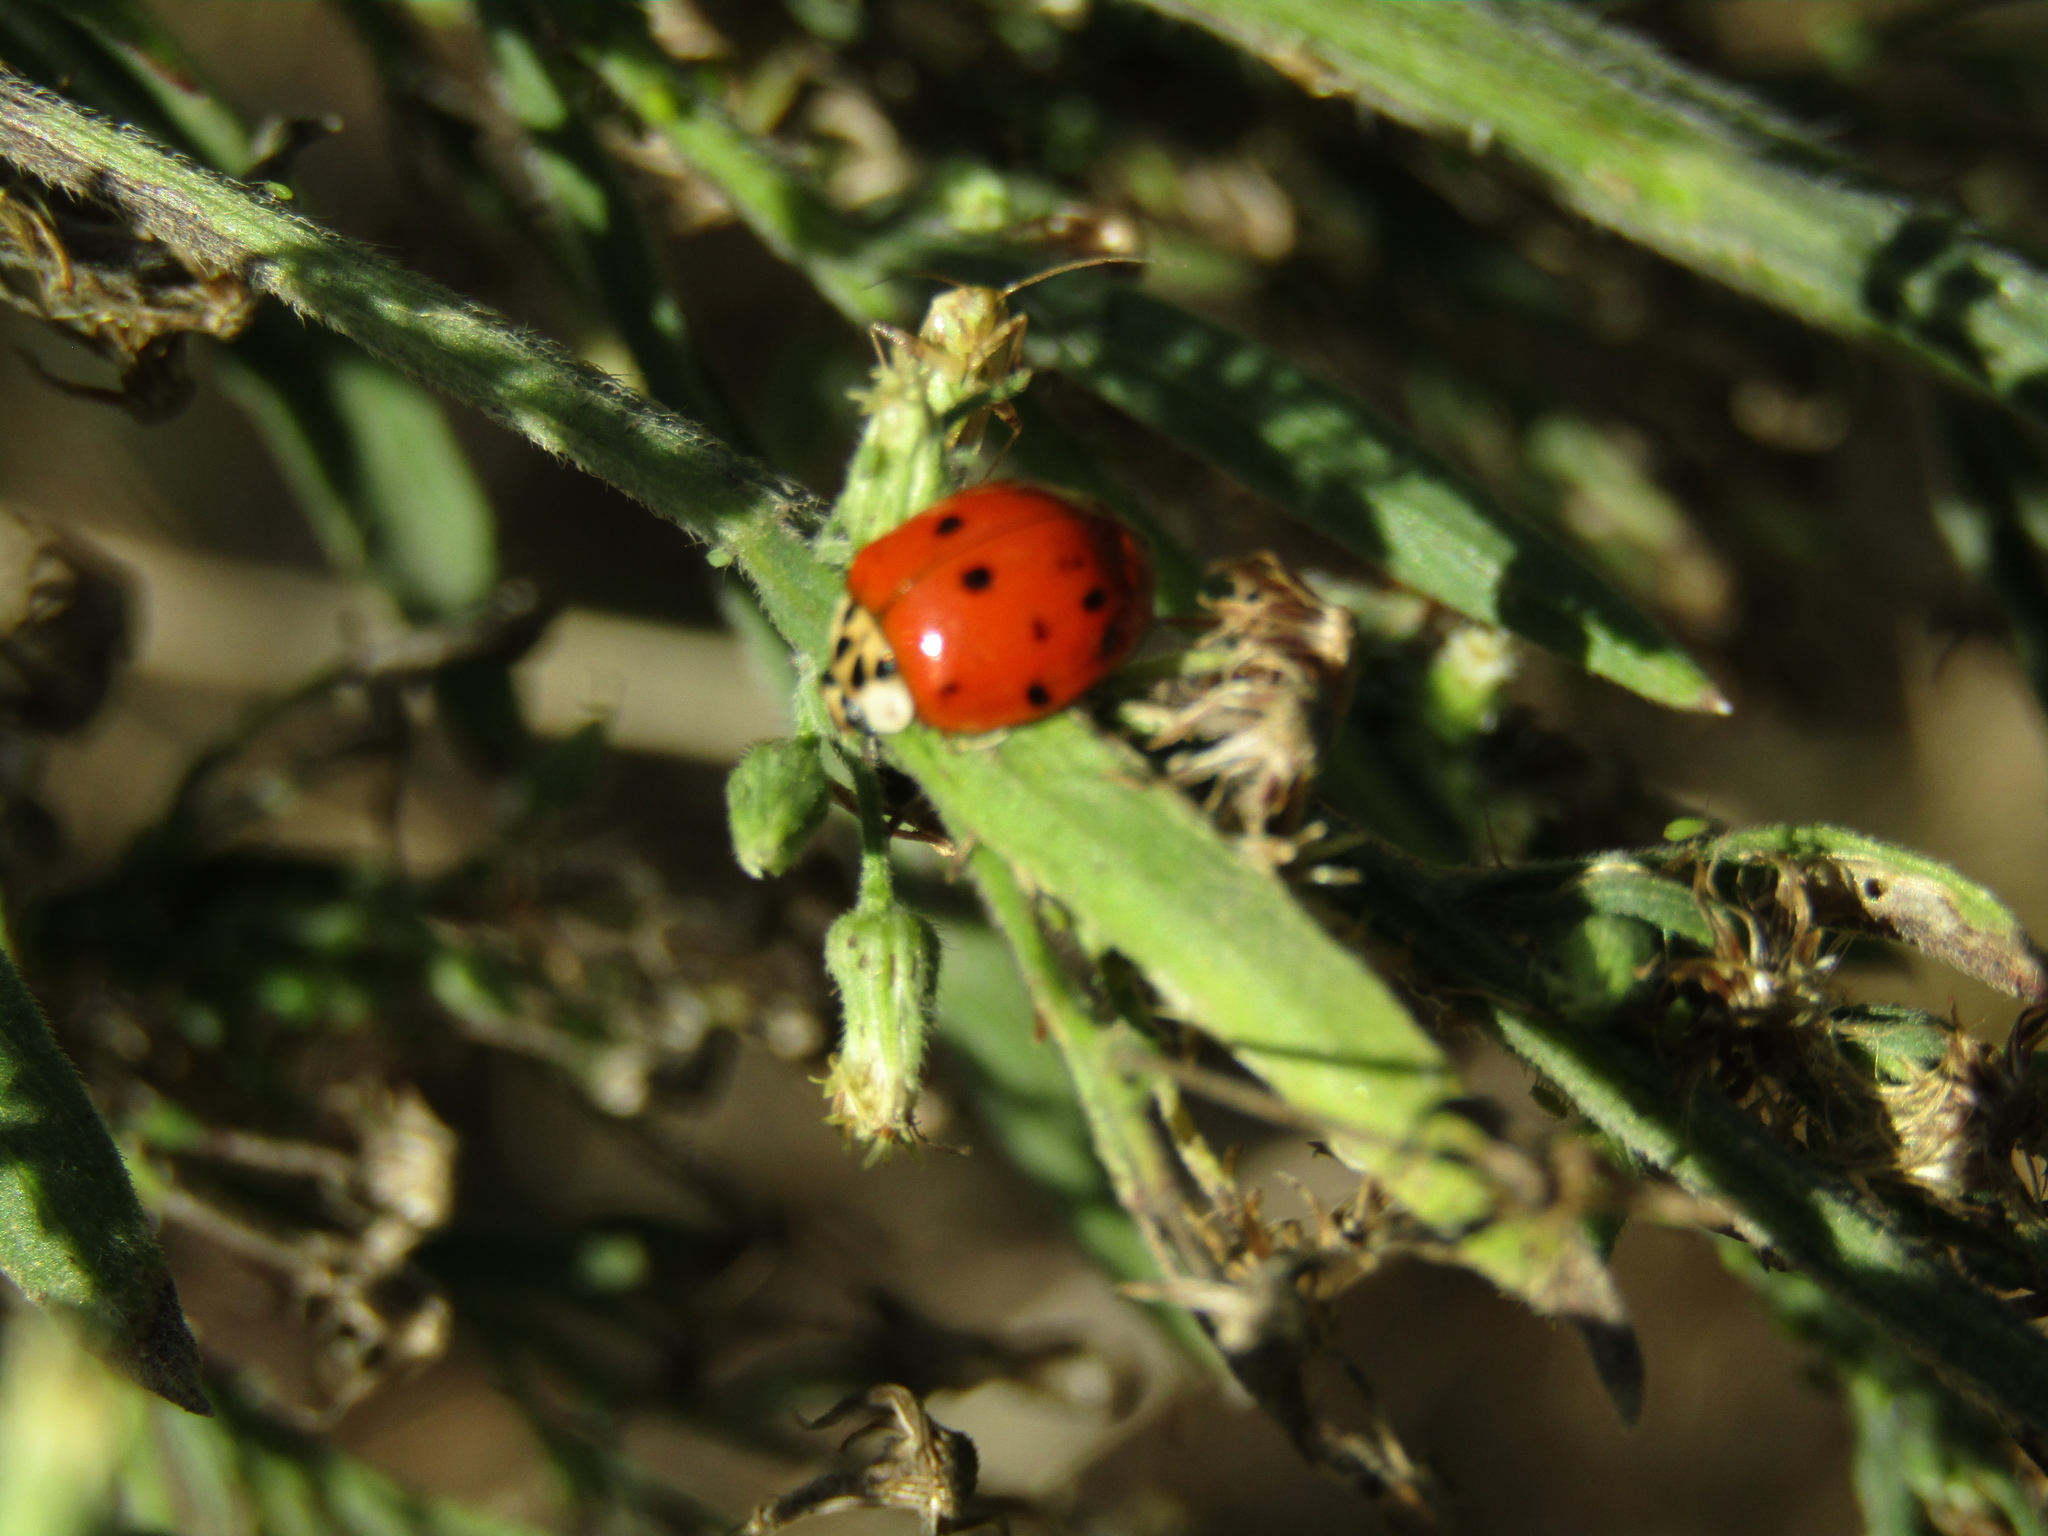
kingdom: Animalia
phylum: Arthropoda
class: Insecta
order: Coleoptera
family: Coccinellidae
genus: Harmonia
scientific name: Harmonia axyridis
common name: Harlequin ladybird
